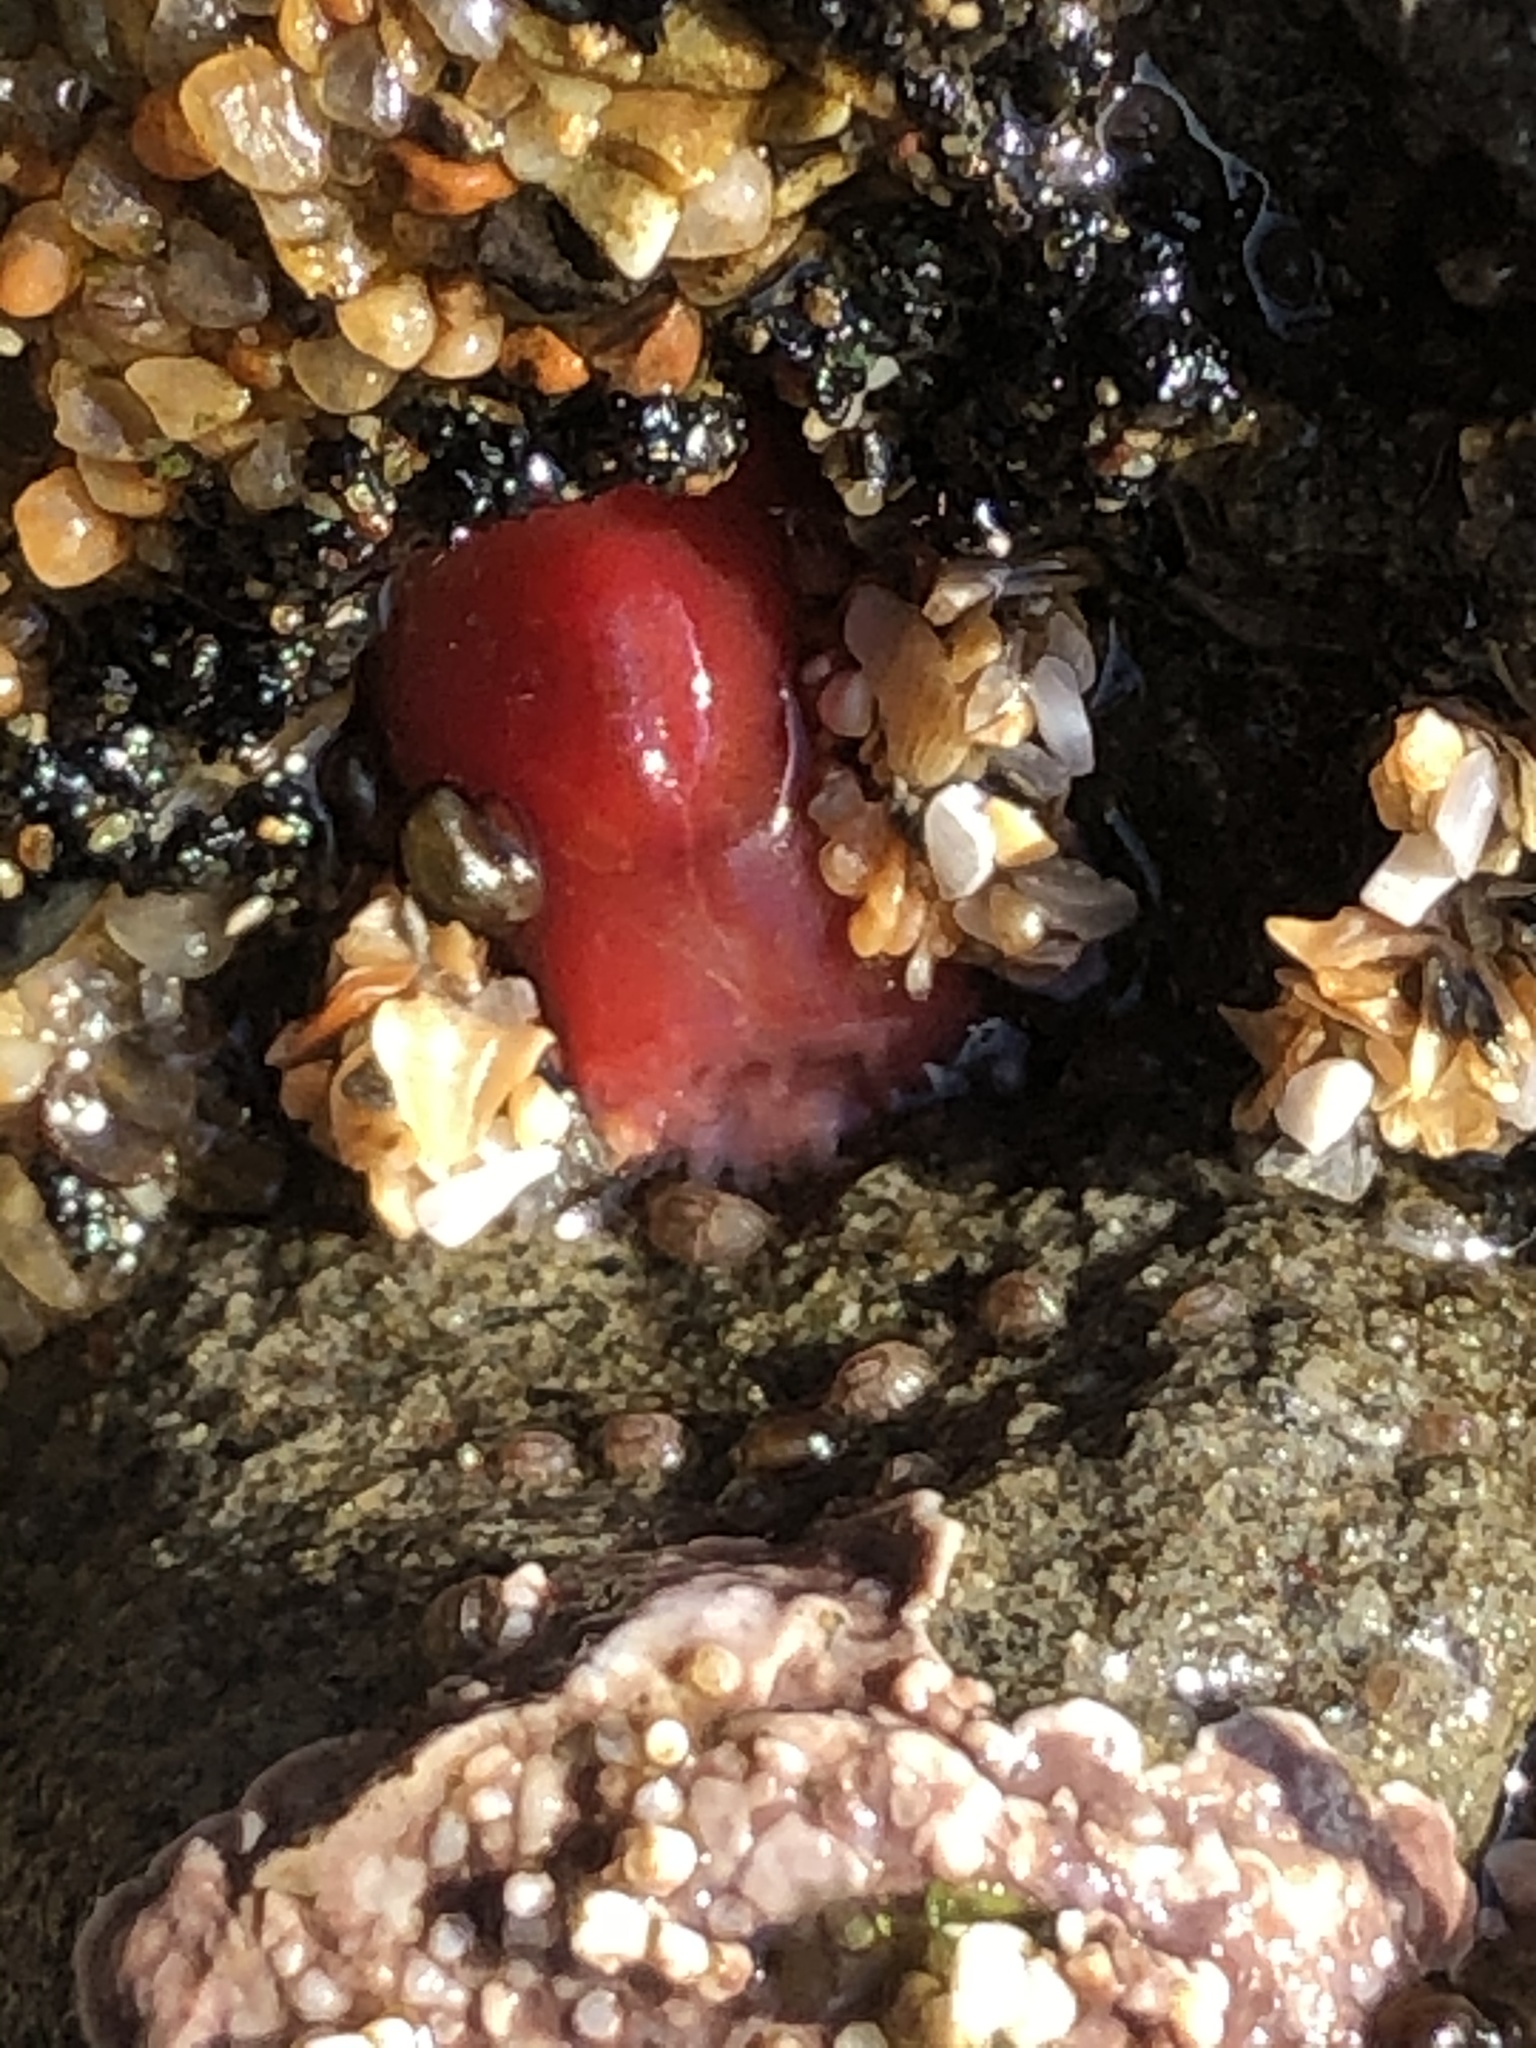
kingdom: Animalia
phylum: Mollusca
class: Bivalvia
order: Adapedonta
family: Hiatellidae
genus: Hiatella
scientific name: Hiatella arctica
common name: Arctic hiatella
